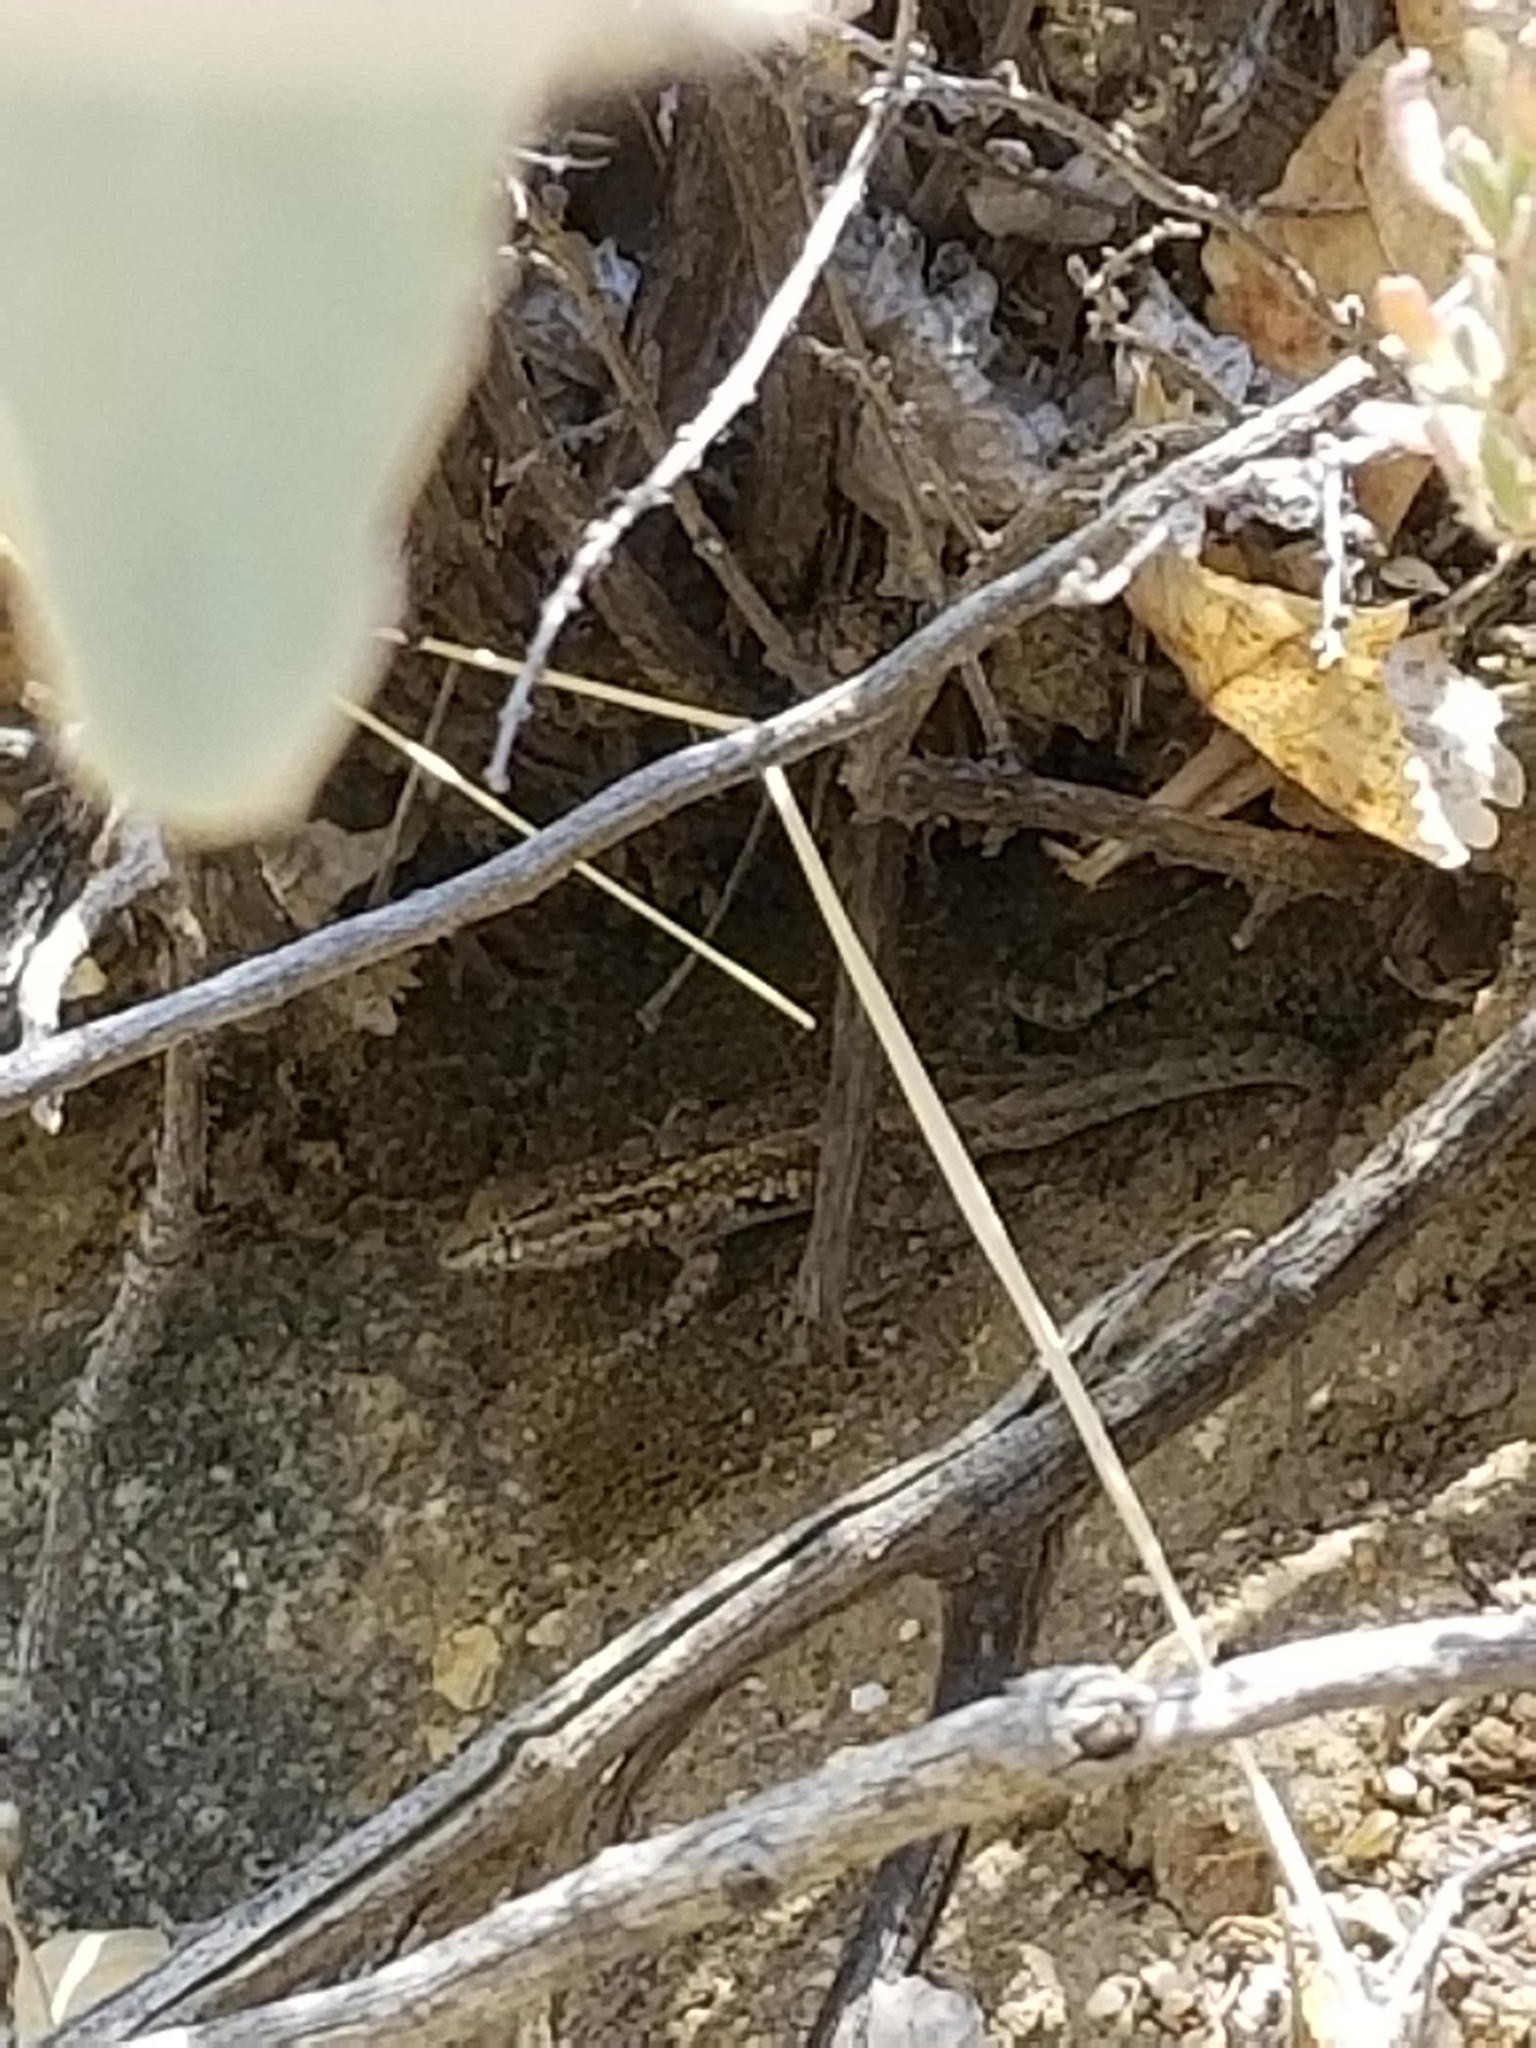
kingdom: Animalia
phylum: Chordata
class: Squamata
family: Phrynosomatidae
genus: Uta
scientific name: Uta stansburiana
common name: Side-blotched lizard
